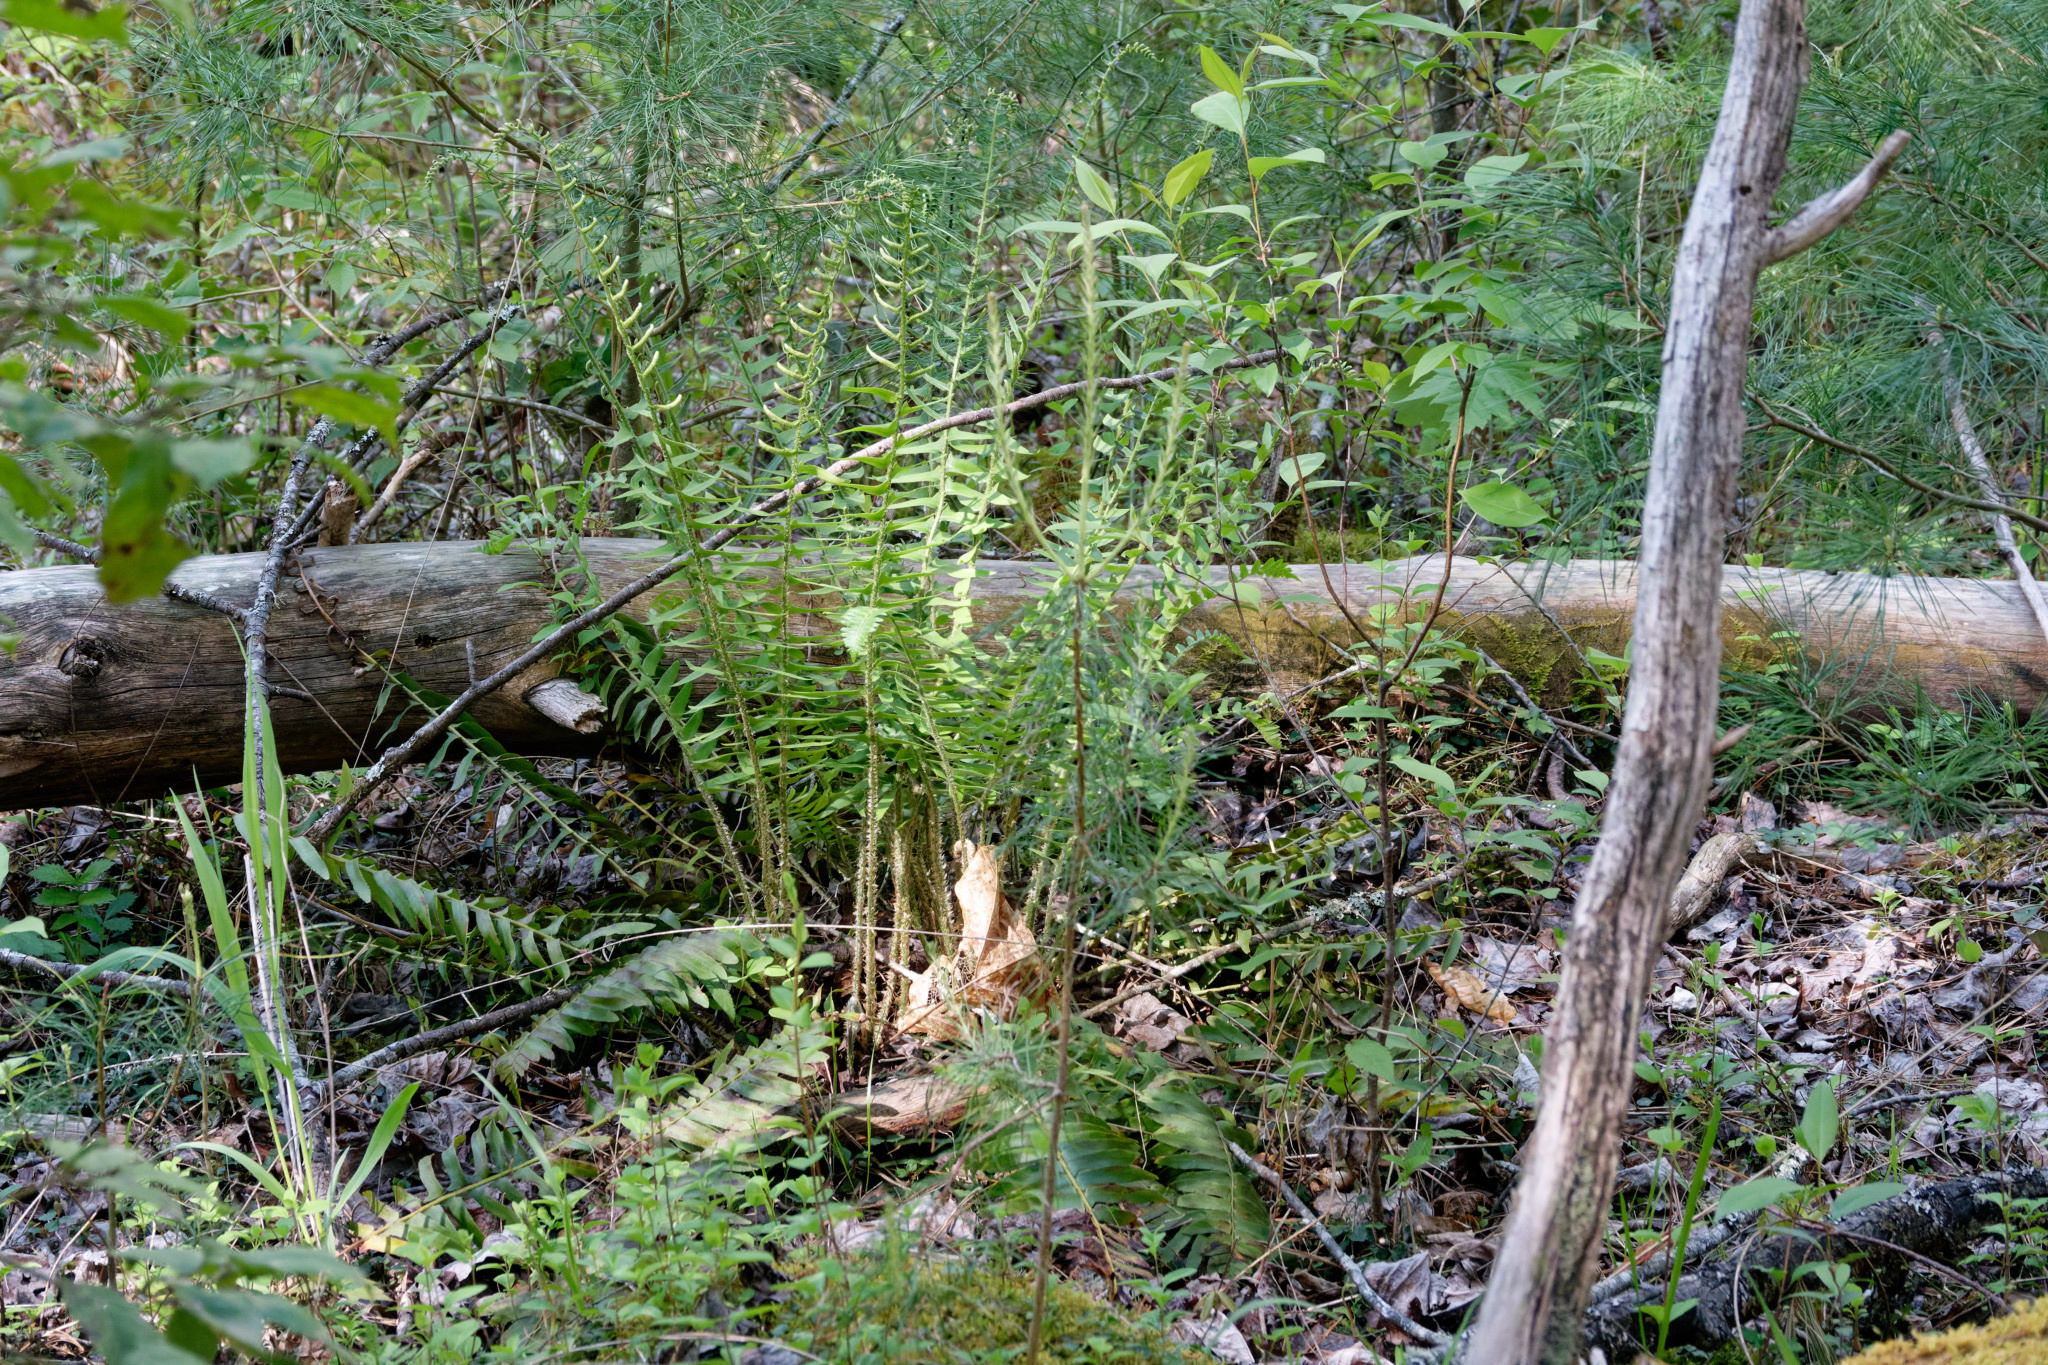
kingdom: Plantae
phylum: Tracheophyta
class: Polypodiopsida
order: Polypodiales
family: Dryopteridaceae
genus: Polystichum
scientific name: Polystichum acrostichoides
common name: Christmas fern
